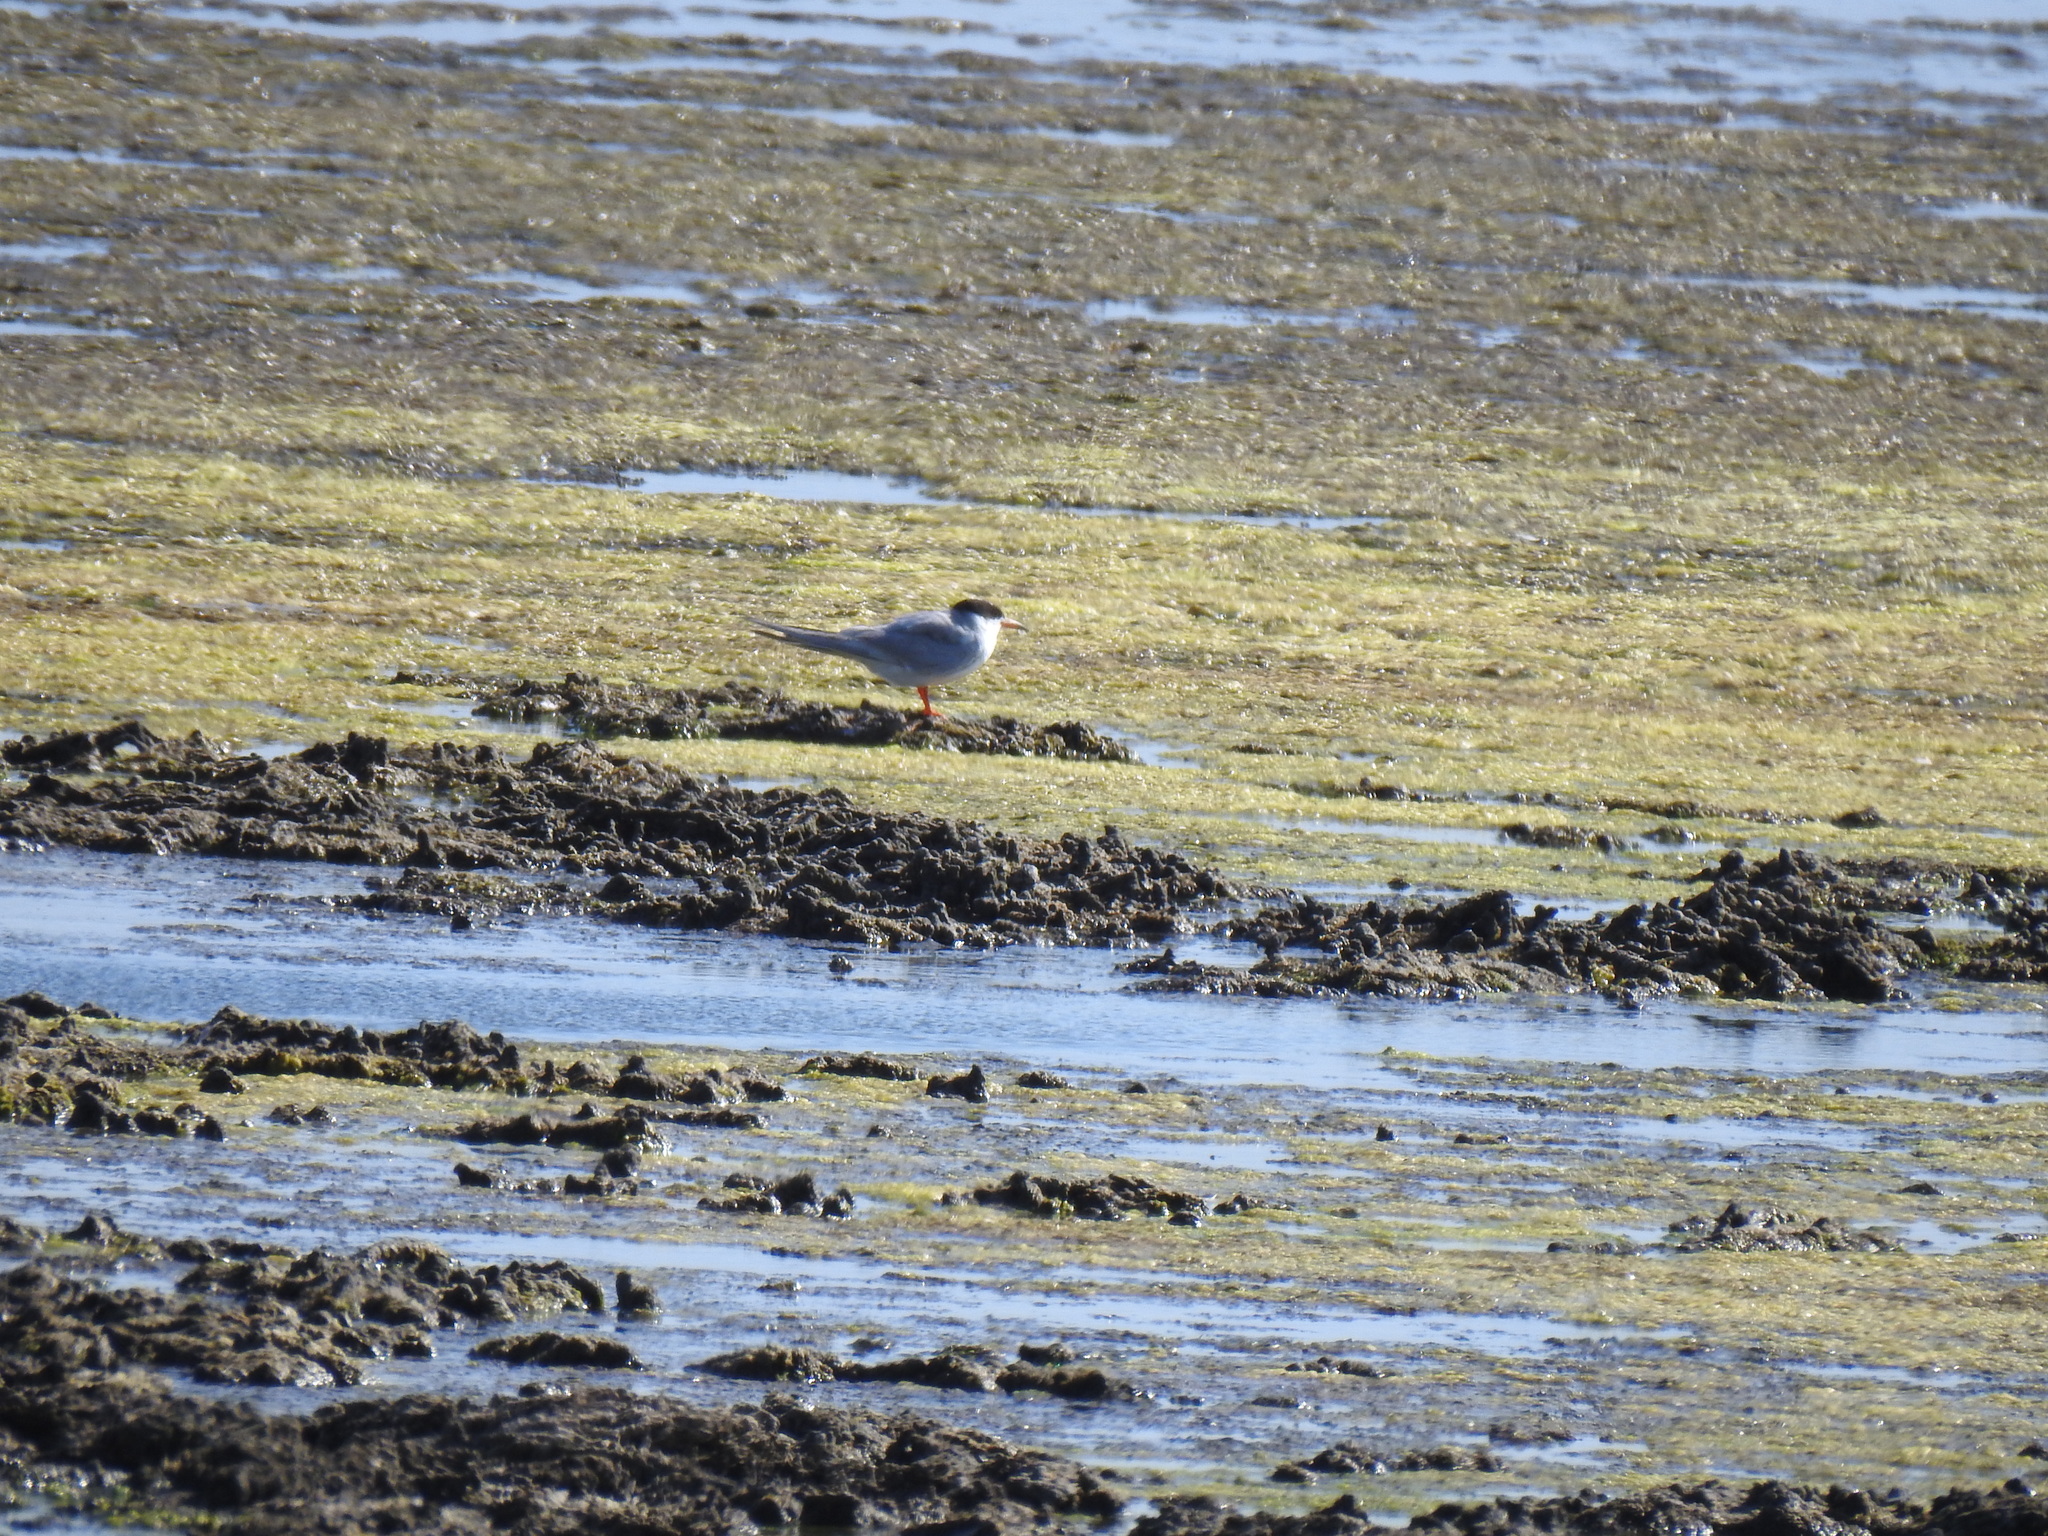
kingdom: Animalia
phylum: Chordata
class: Aves
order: Charadriiformes
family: Laridae
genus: Sterna
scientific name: Sterna forsteri
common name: Forster's tern
